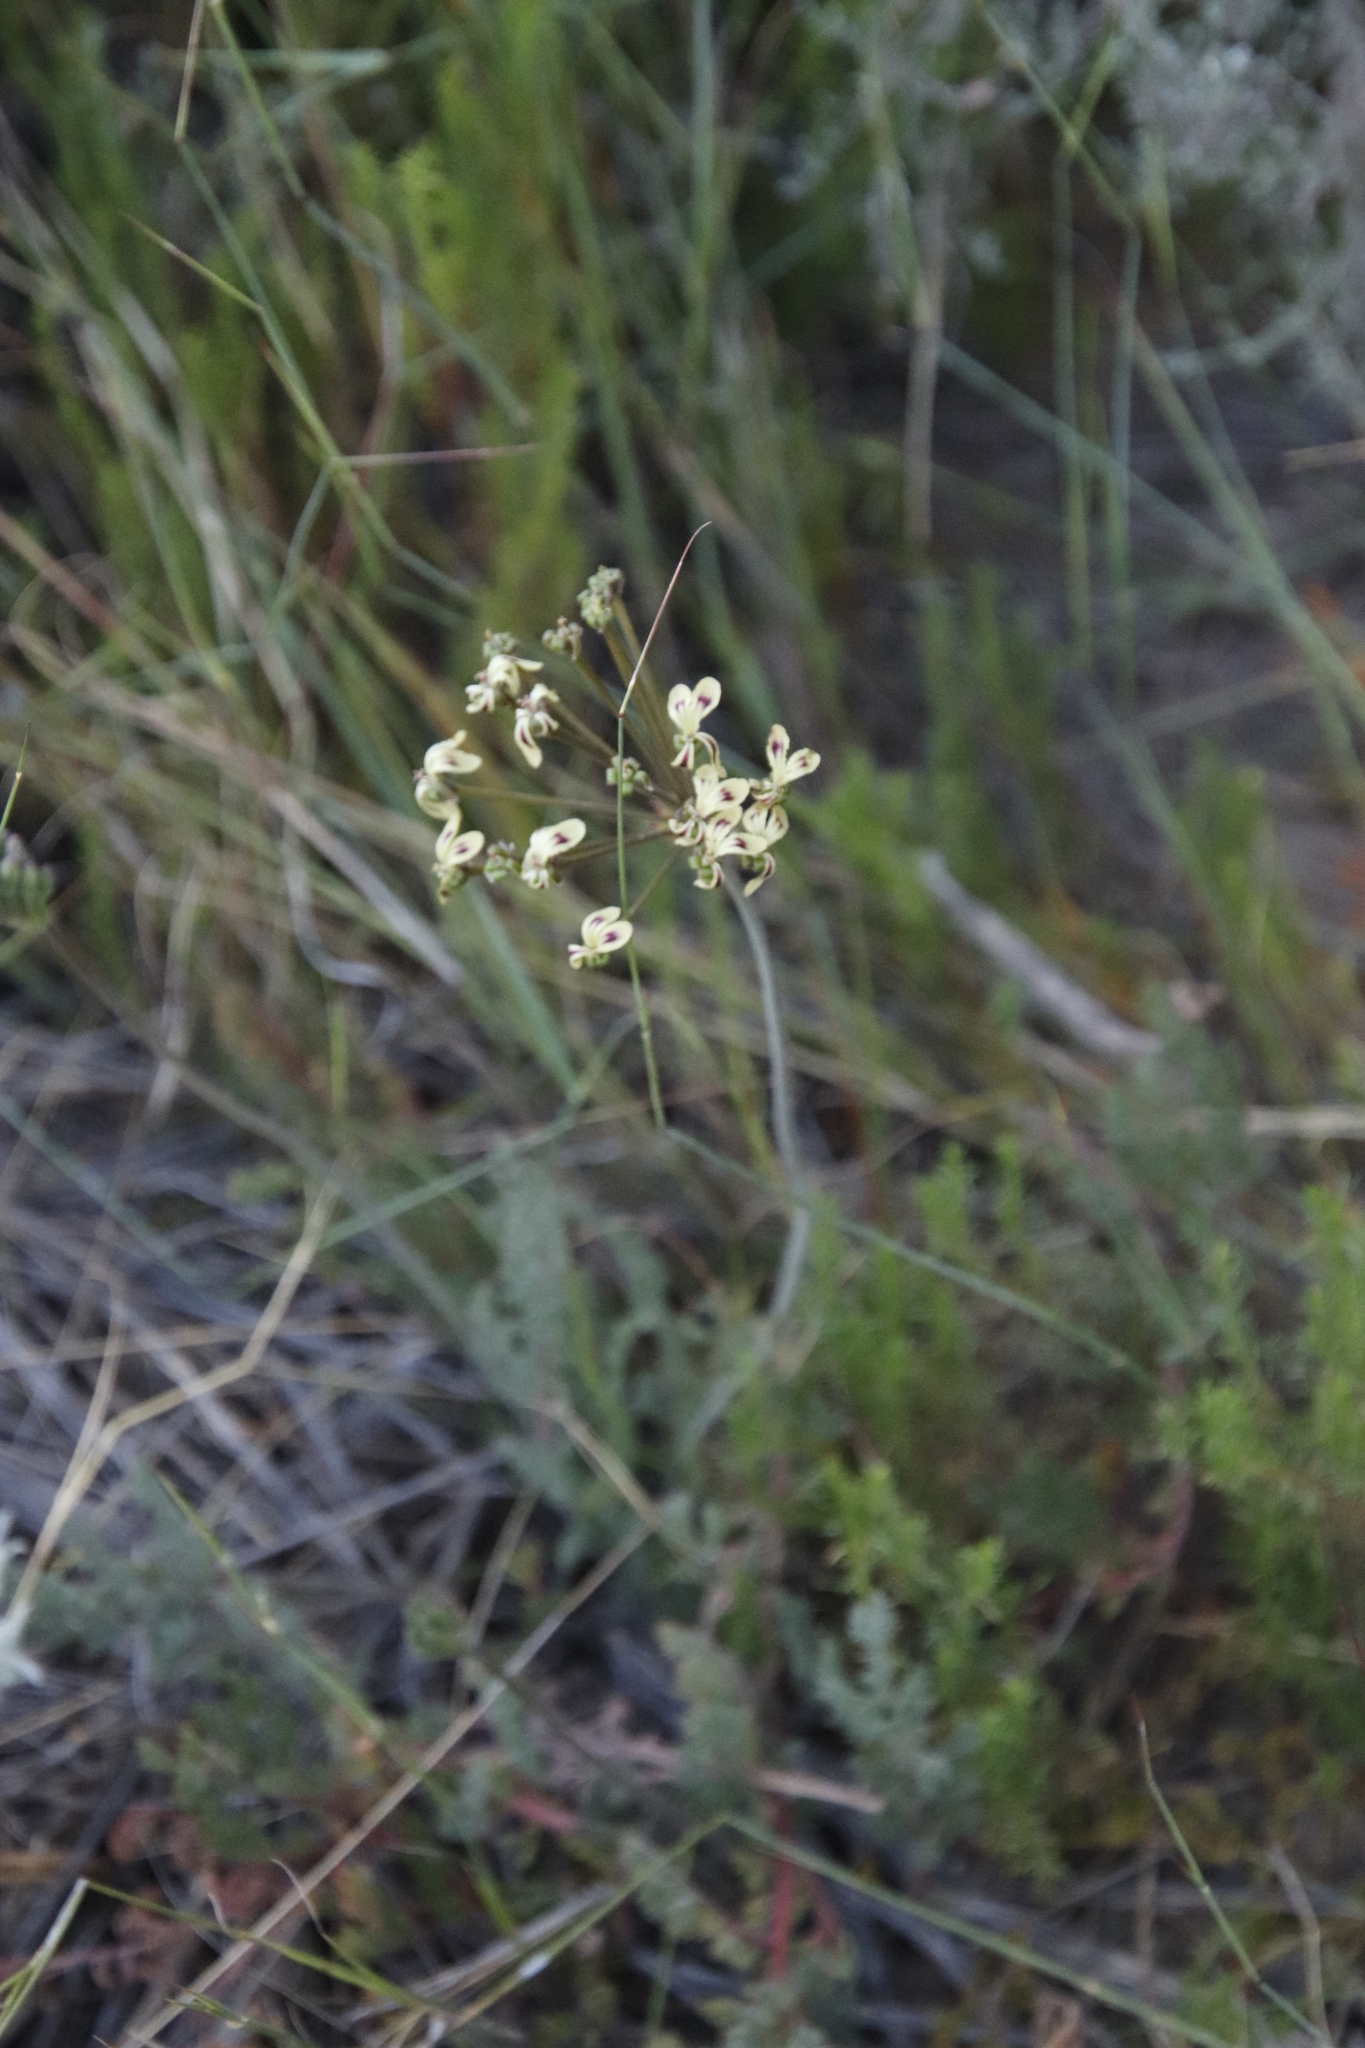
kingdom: Plantae
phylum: Tracheophyta
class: Magnoliopsida
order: Geraniales
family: Geraniaceae
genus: Pelargonium
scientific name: Pelargonium triste
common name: Night-scent pelargonium
